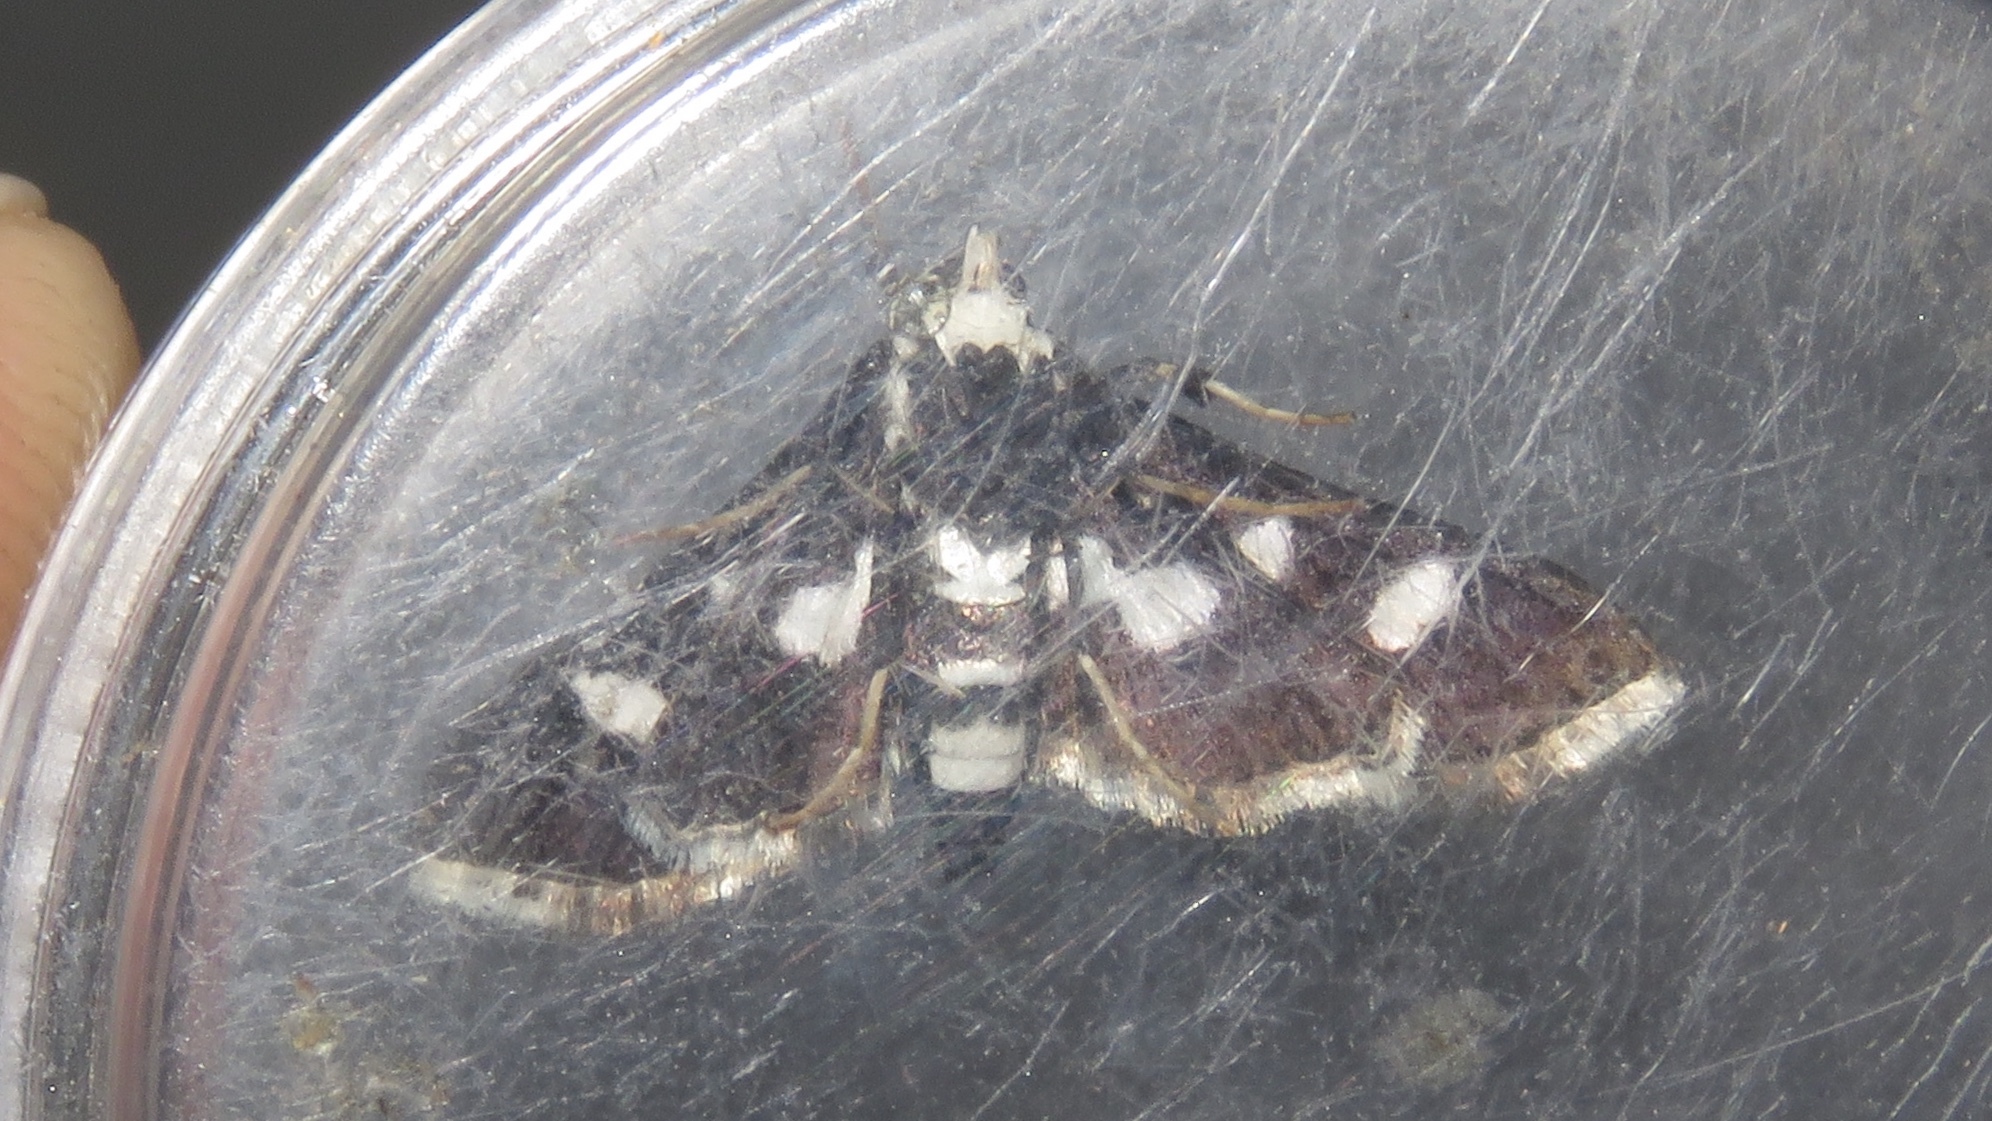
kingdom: Animalia
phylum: Arthropoda
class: Insecta
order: Lepidoptera
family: Crambidae
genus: Desmia
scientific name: Desmia funeralis
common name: Grape leaf folder moth
